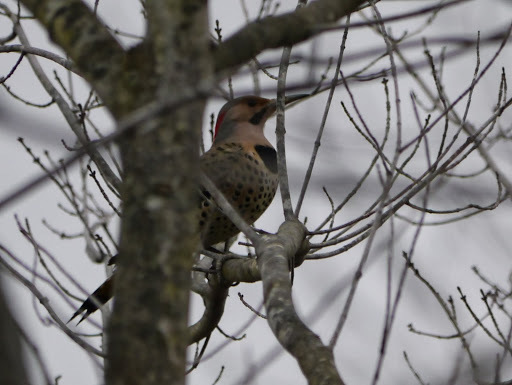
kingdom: Animalia
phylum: Chordata
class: Aves
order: Piciformes
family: Picidae
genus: Colaptes
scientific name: Colaptes auratus
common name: Northern flicker
